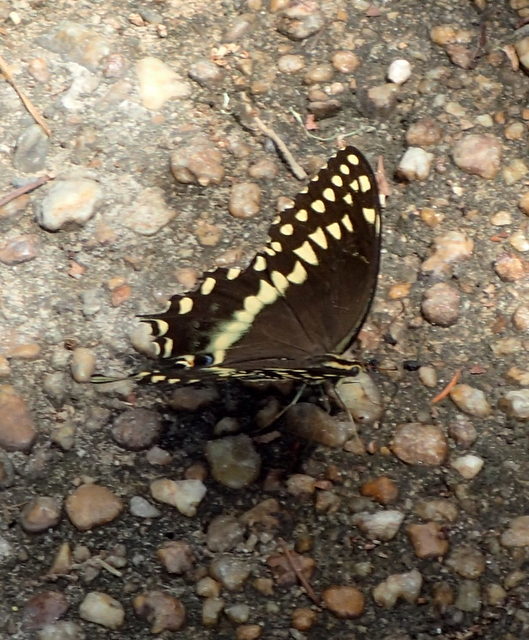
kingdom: Animalia
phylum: Arthropoda
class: Insecta
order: Lepidoptera
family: Papilionidae
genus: Papilio
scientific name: Papilio palamedes
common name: Palamedes swallowtail
